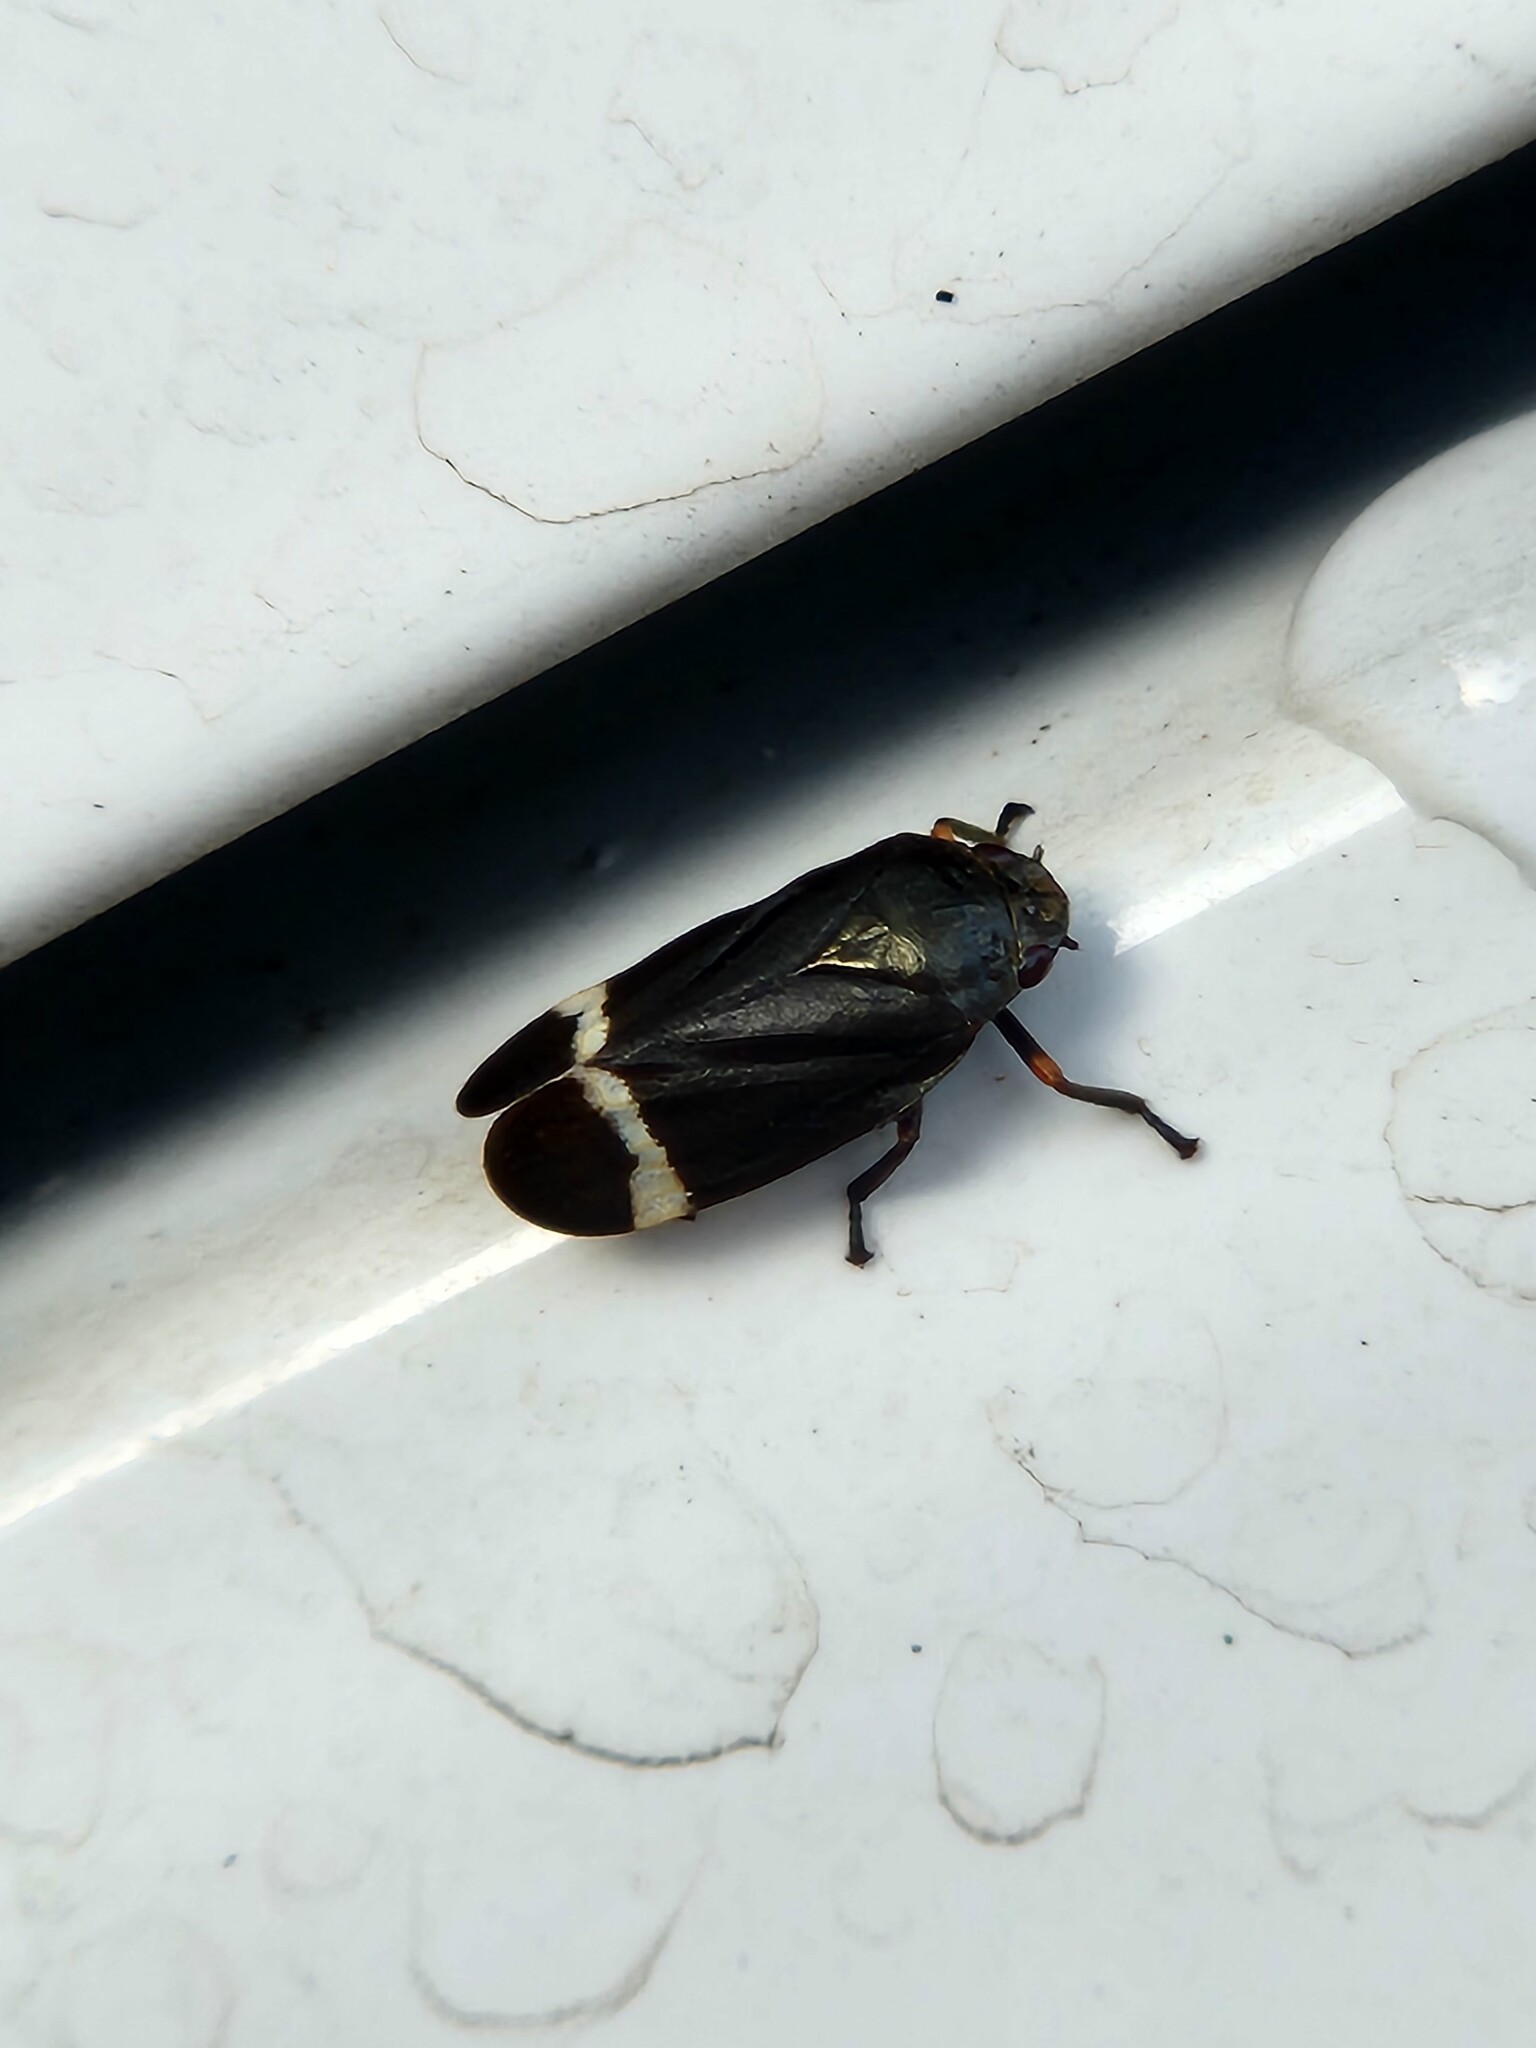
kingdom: Animalia
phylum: Arthropoda
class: Insecta
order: Hemiptera
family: Cercopidae
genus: Notozulia
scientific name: Notozulia entreriana
